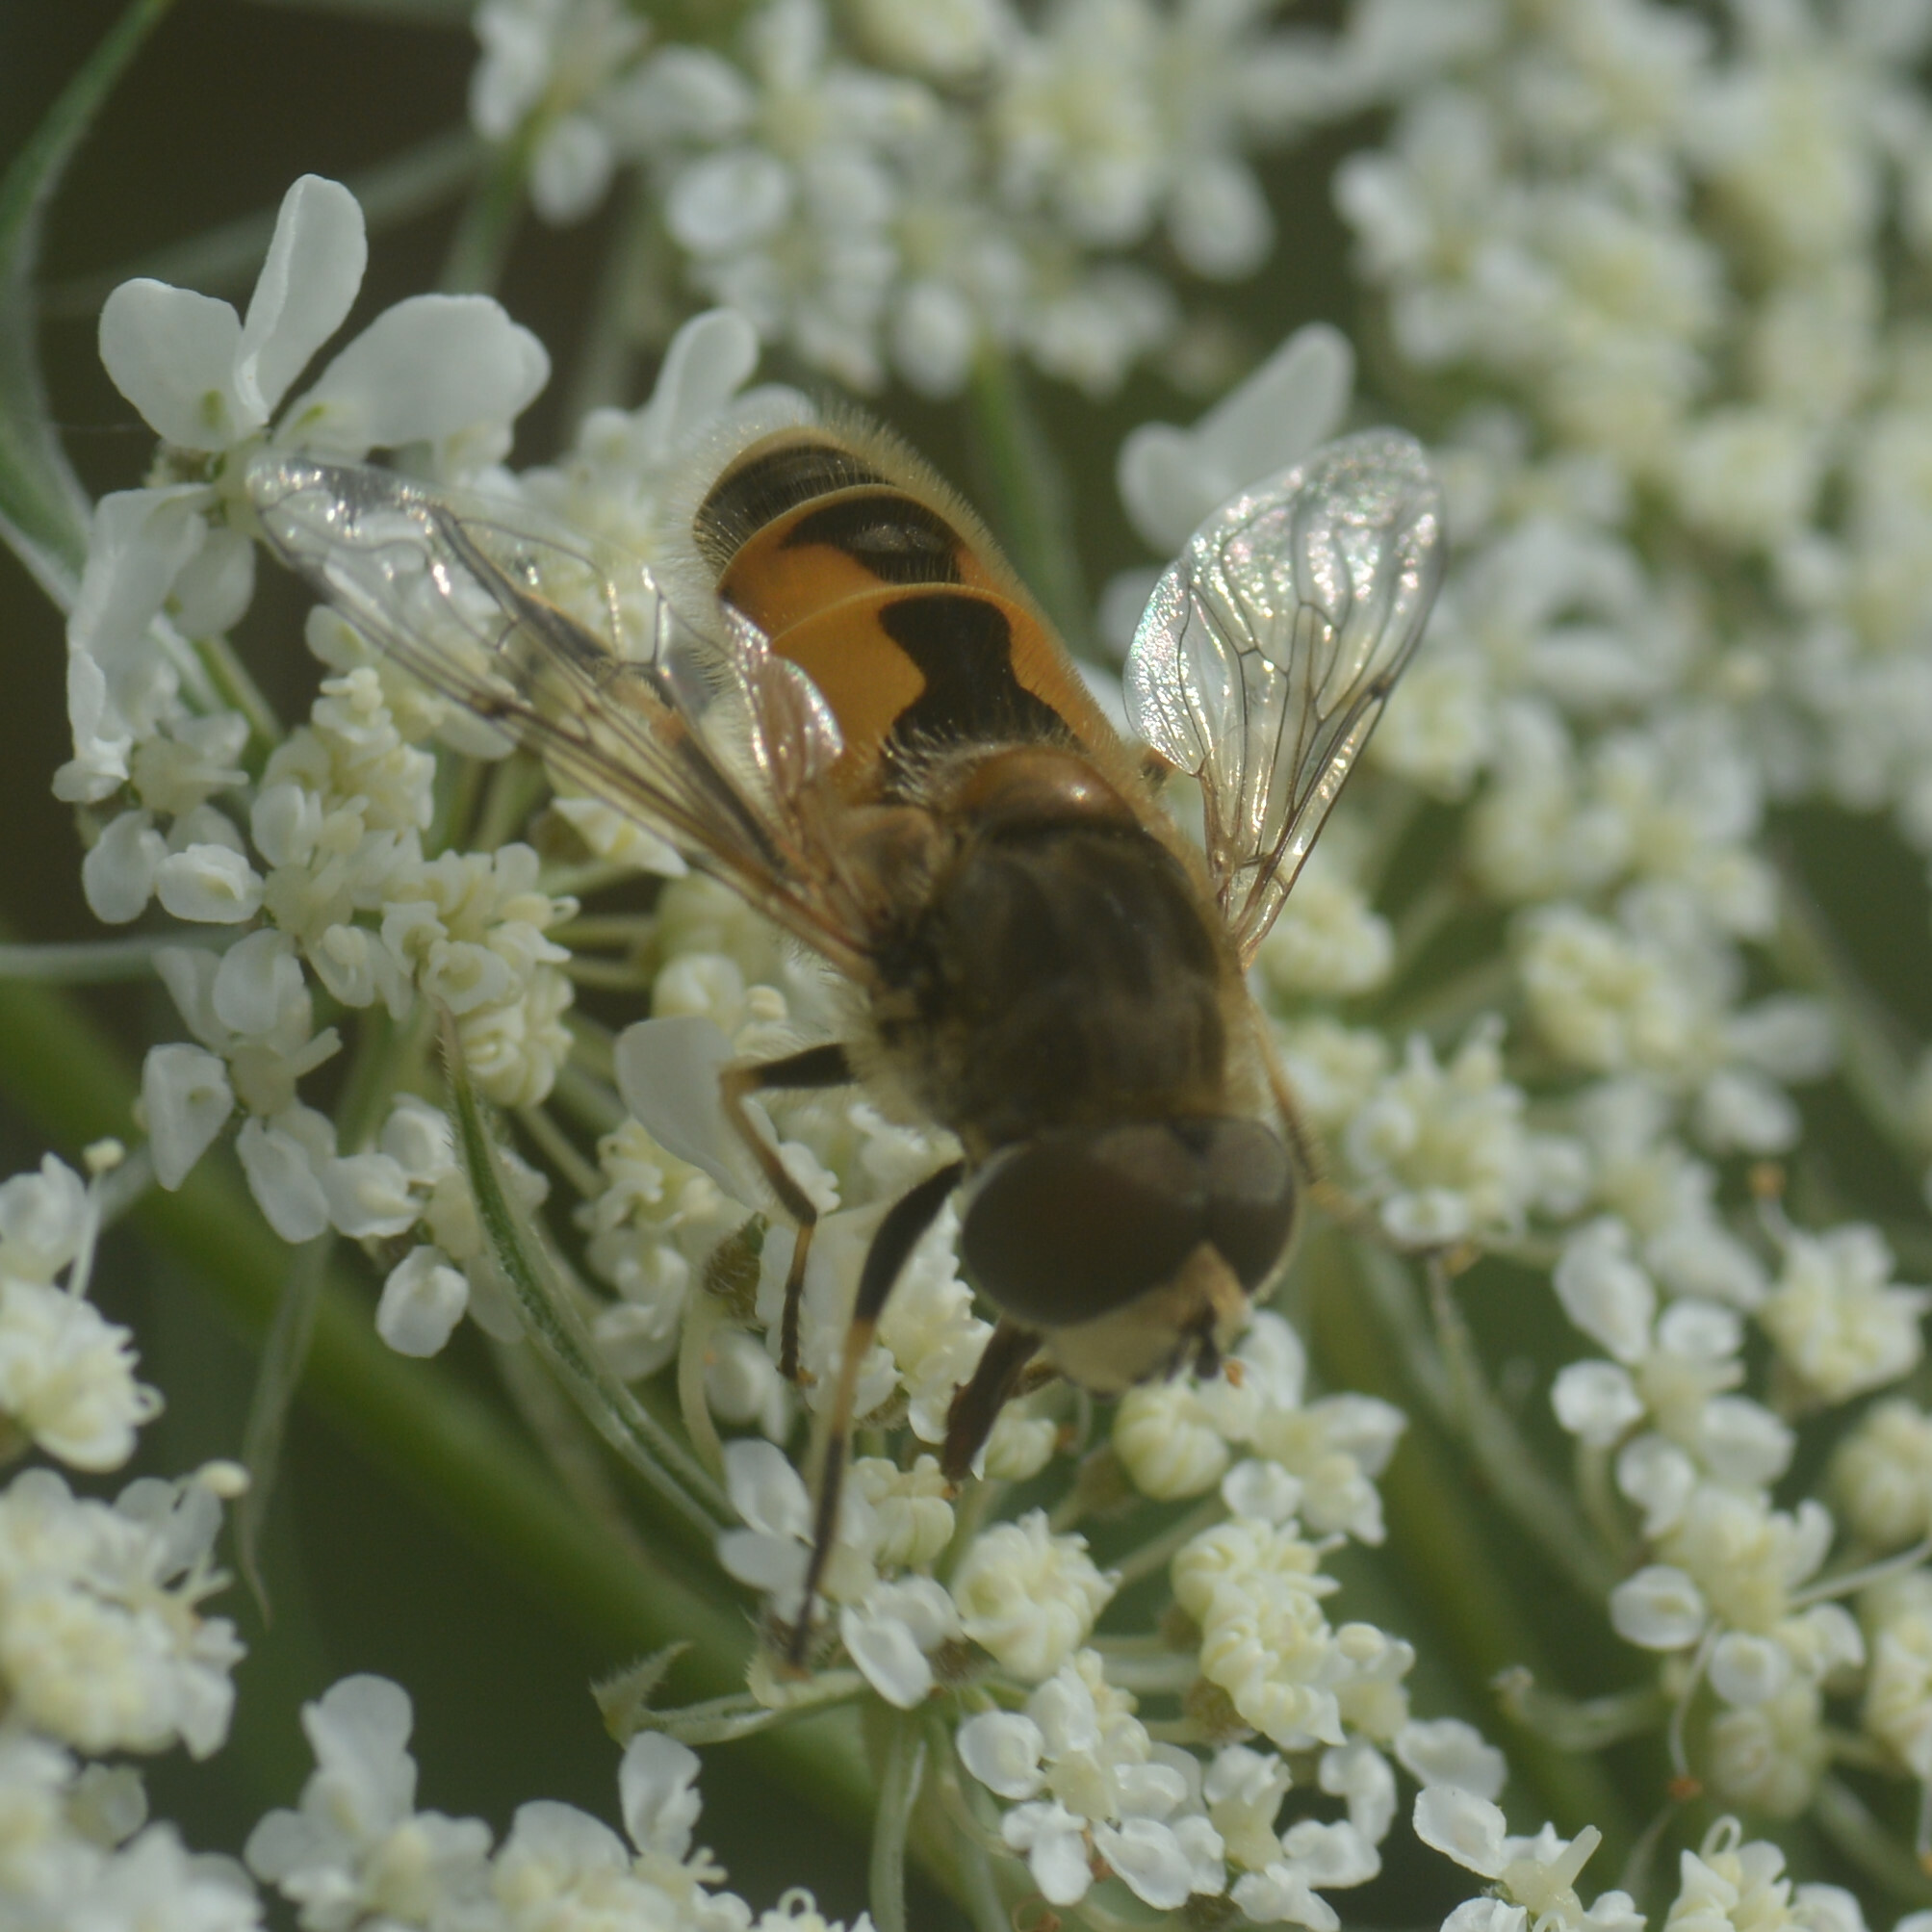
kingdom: Animalia
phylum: Arthropoda
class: Insecta
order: Diptera
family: Syrphidae
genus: Eristalis
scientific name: Eristalis arbustorum
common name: Hover fly
